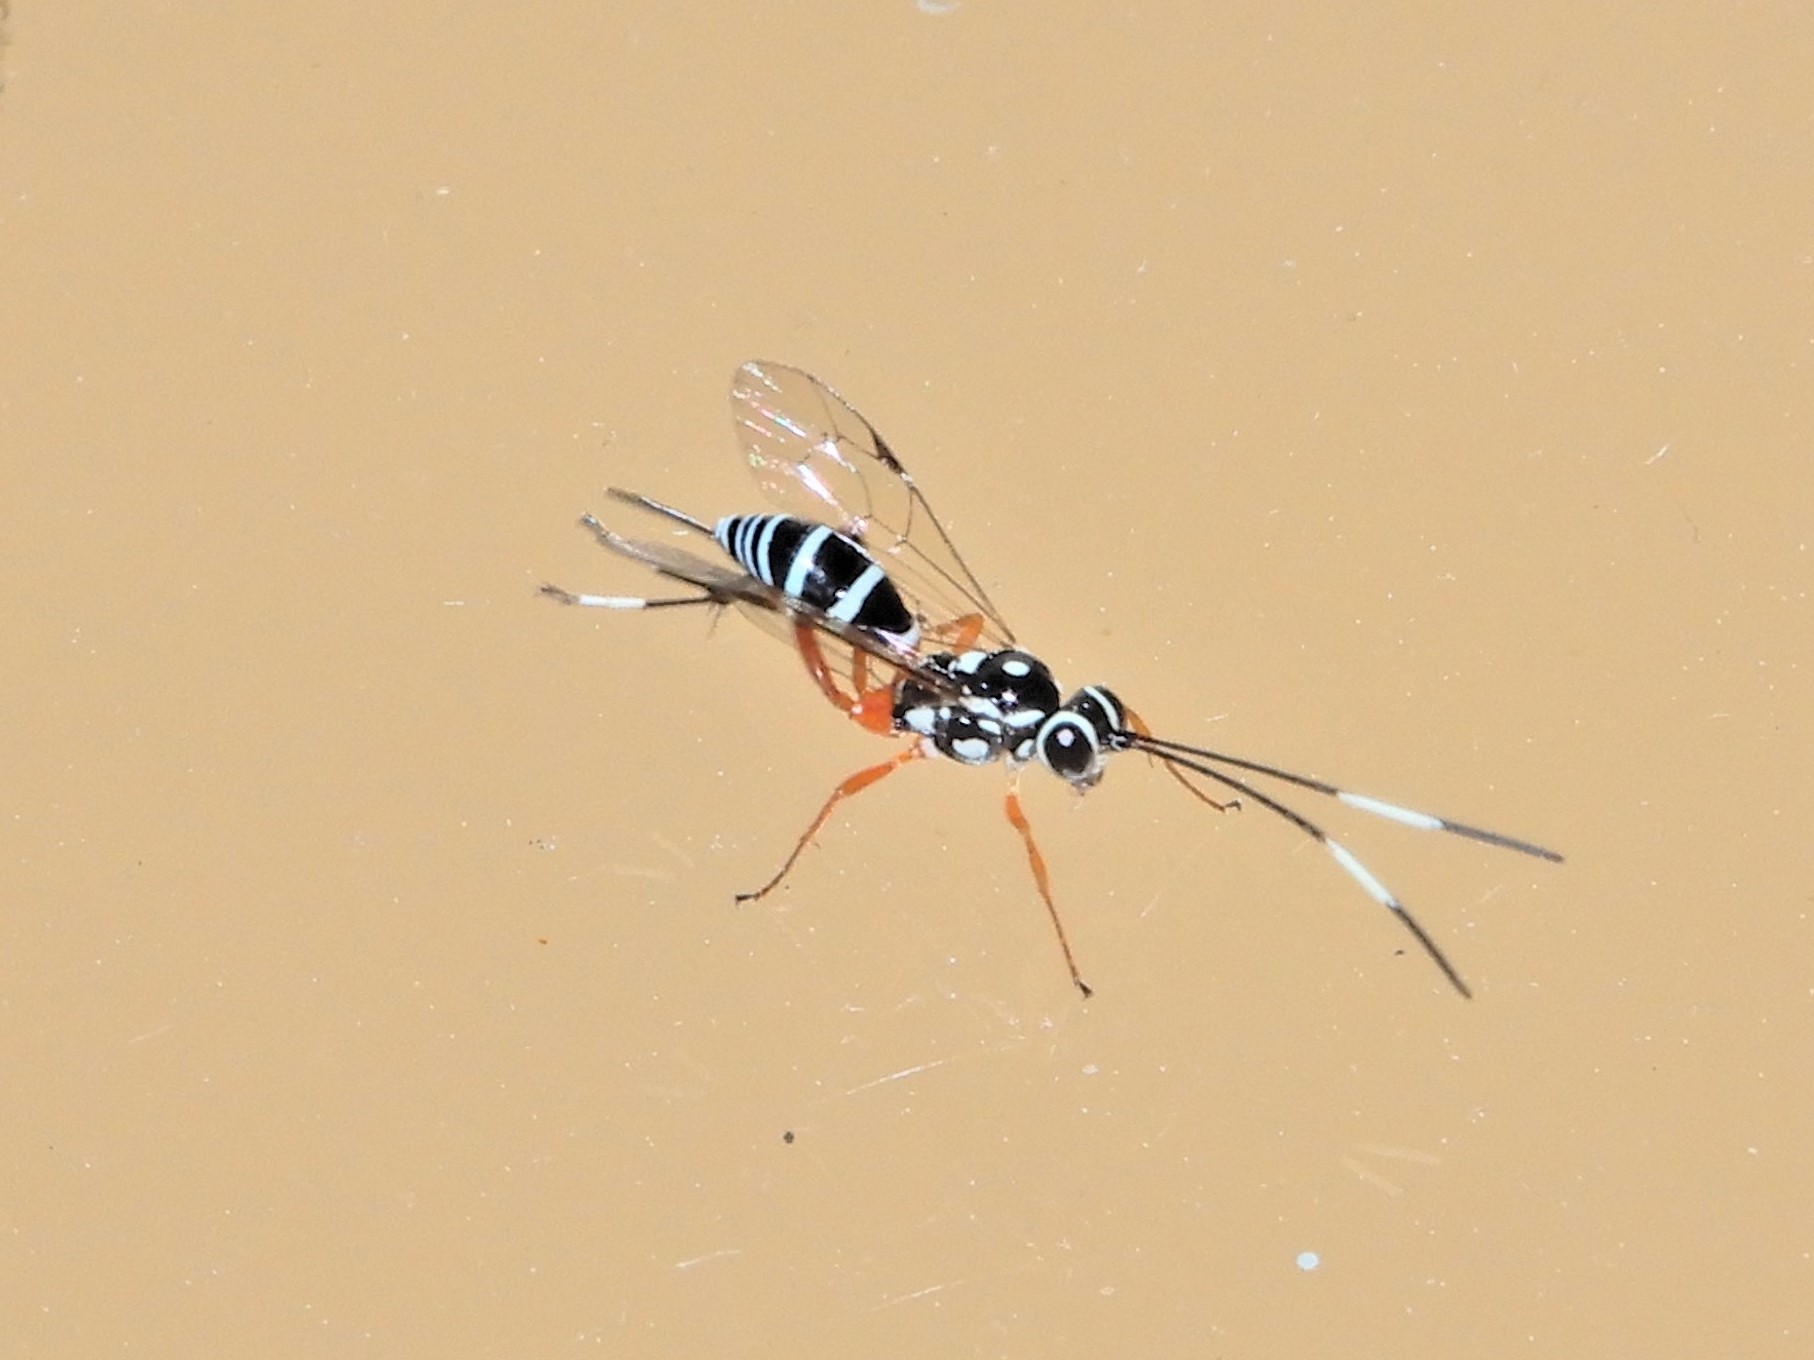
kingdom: Animalia
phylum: Arthropoda
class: Insecta
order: Hymenoptera
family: Ichneumonidae
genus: Glabridorsum
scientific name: Glabridorsum stokesii
